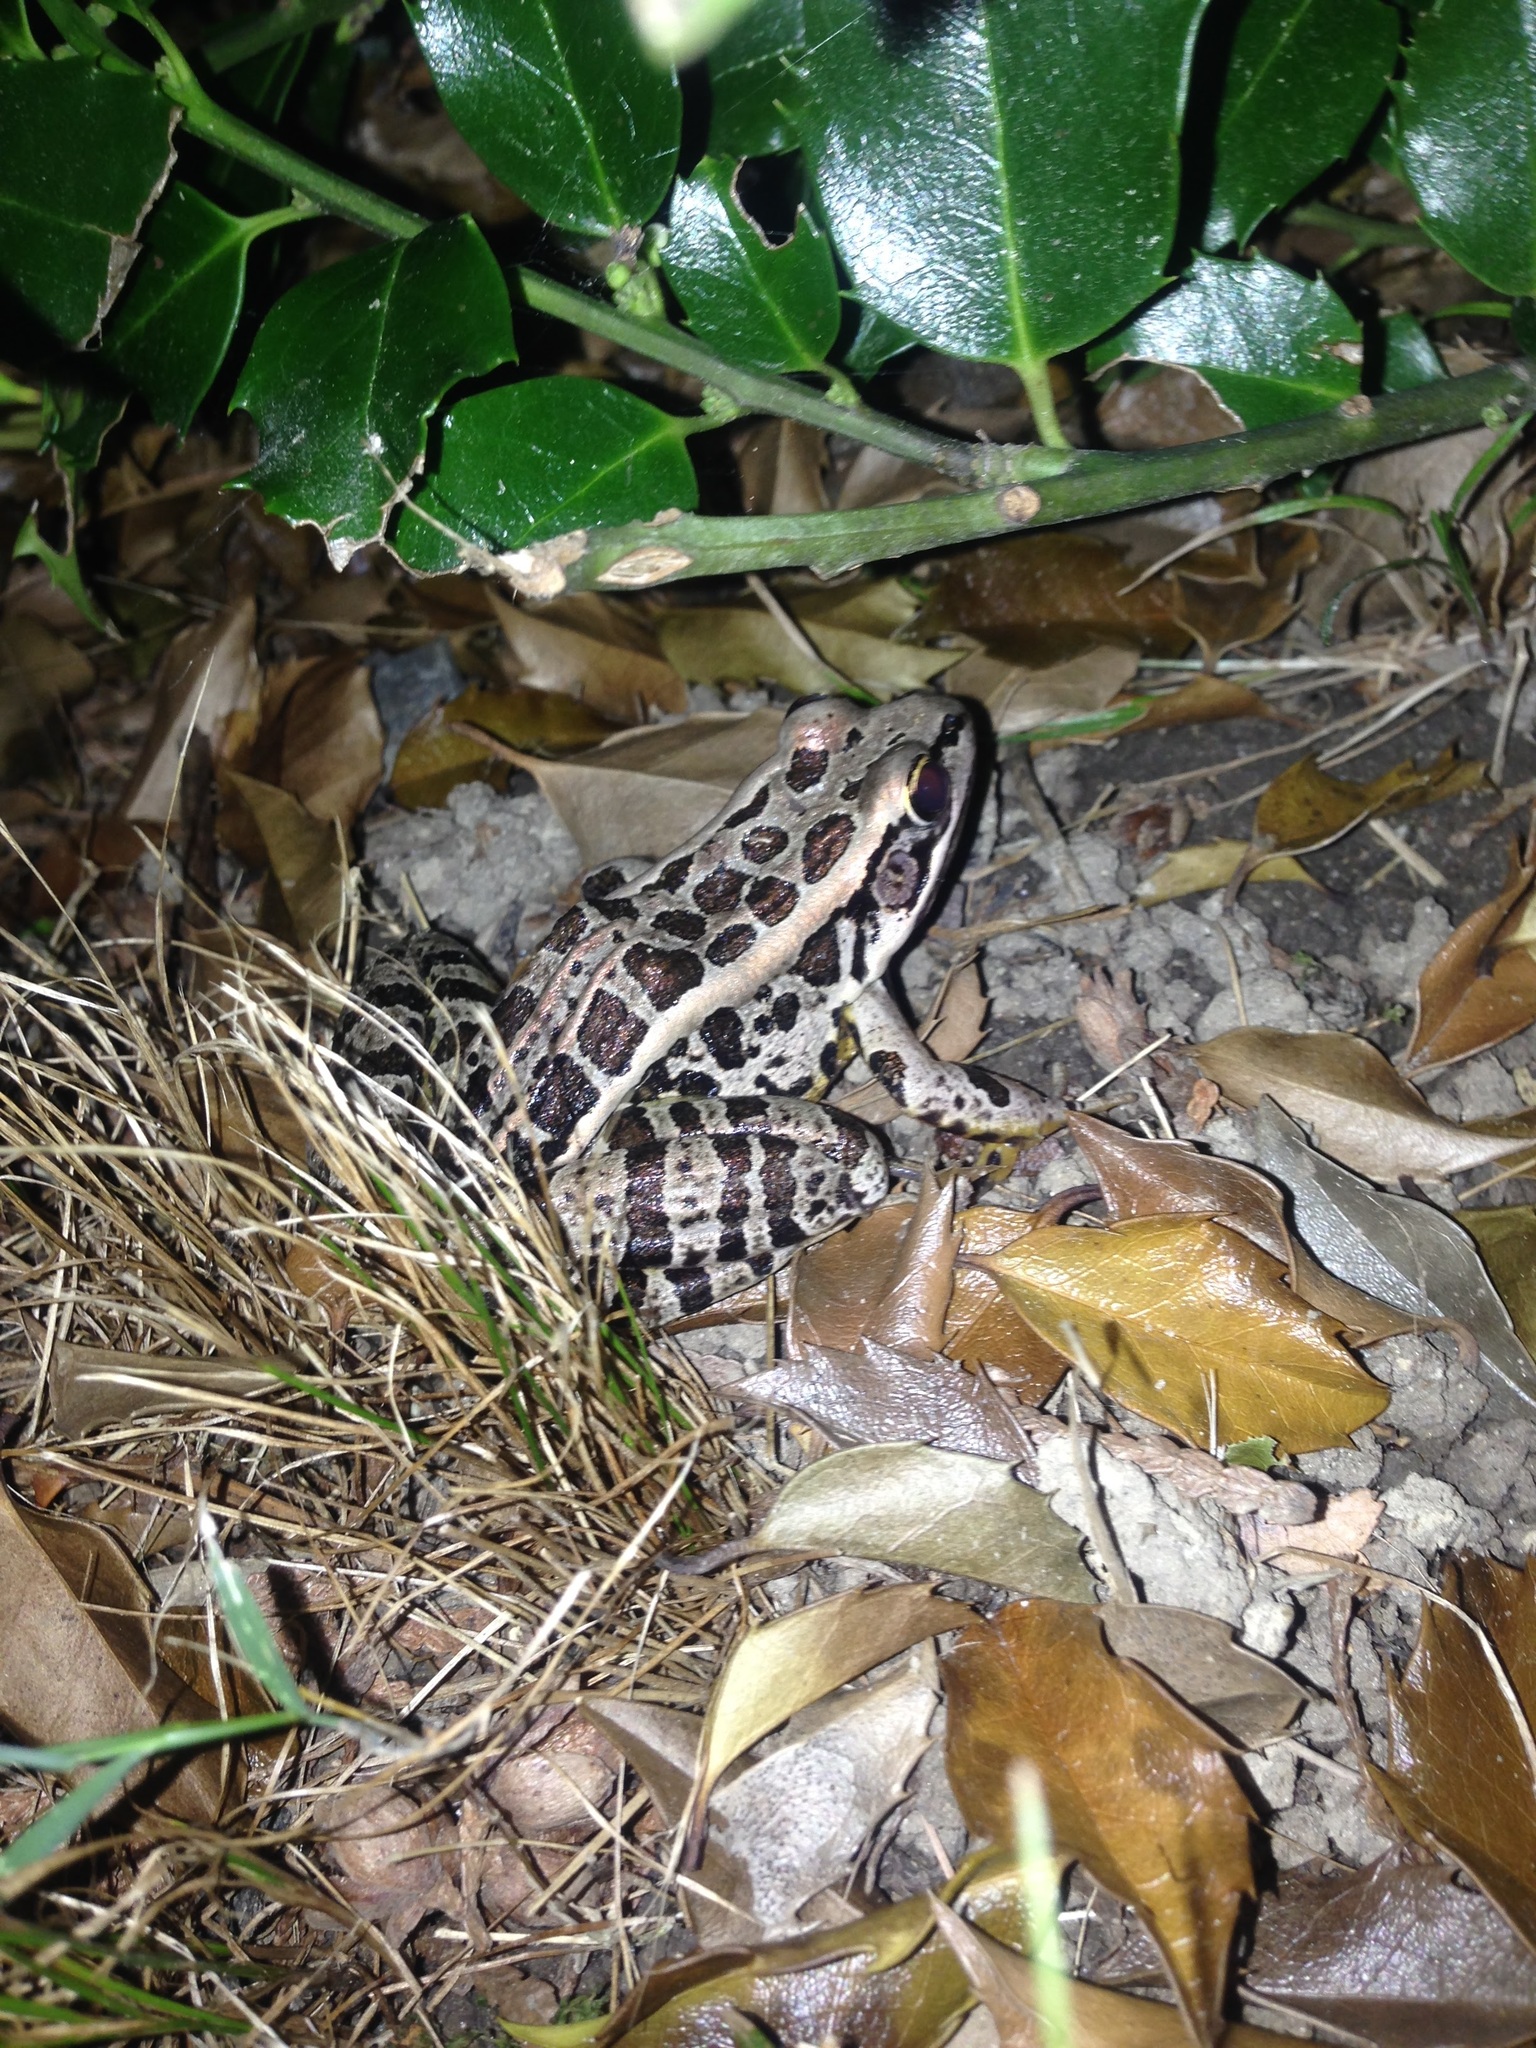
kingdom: Animalia
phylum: Chordata
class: Amphibia
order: Anura
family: Ranidae
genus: Lithobates
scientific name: Lithobates palustris
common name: Pickerel frog
